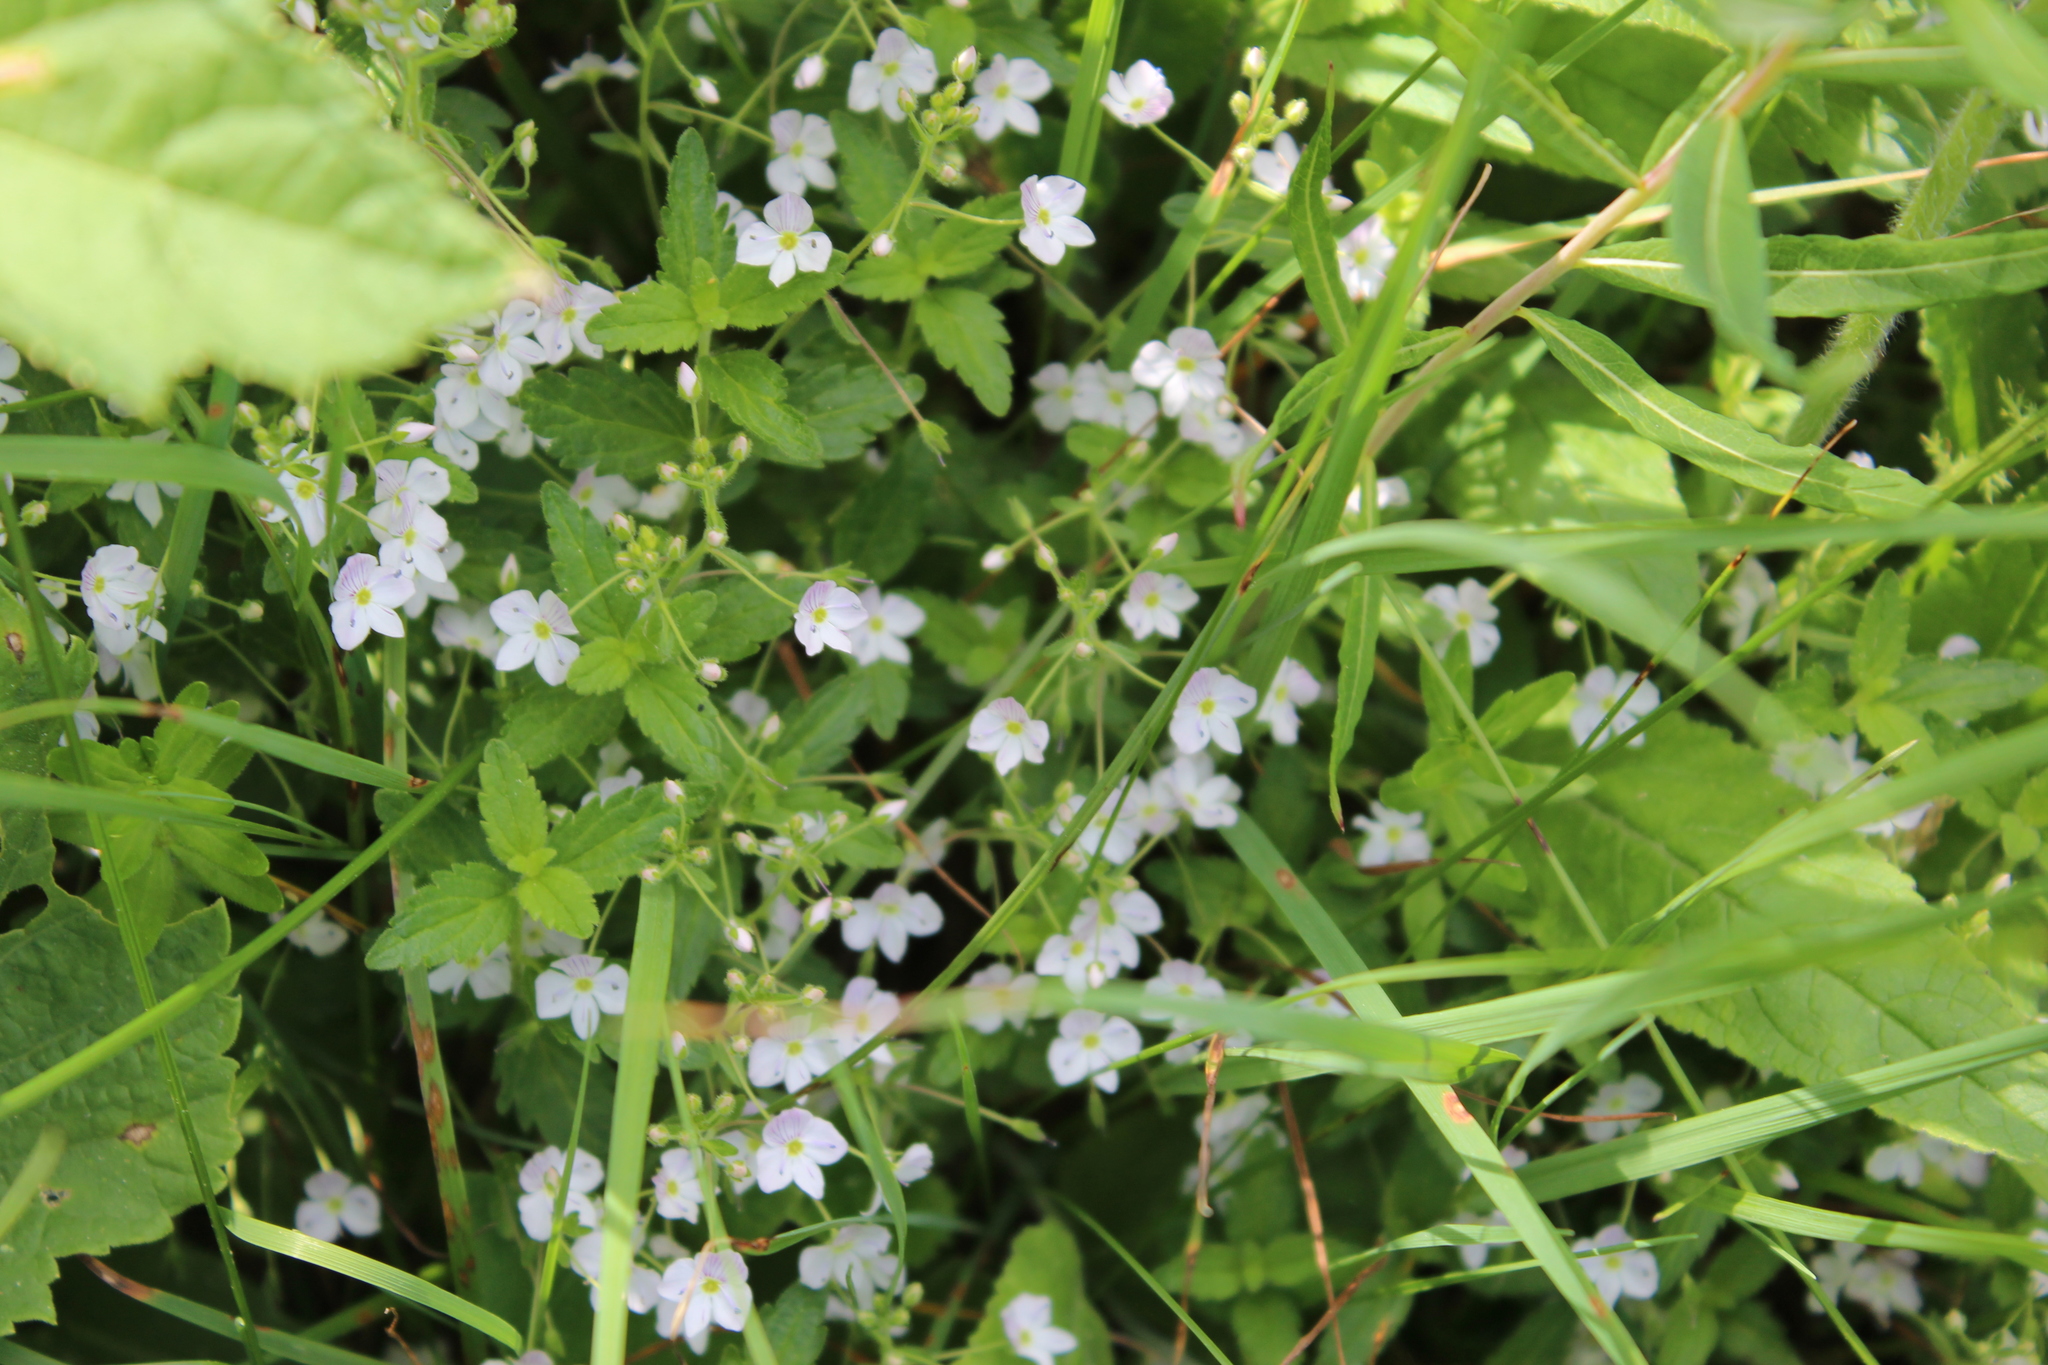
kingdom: Plantae
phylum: Tracheophyta
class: Magnoliopsida
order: Lamiales
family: Plantaginaceae
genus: Veronica
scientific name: Veronica peduncularis
